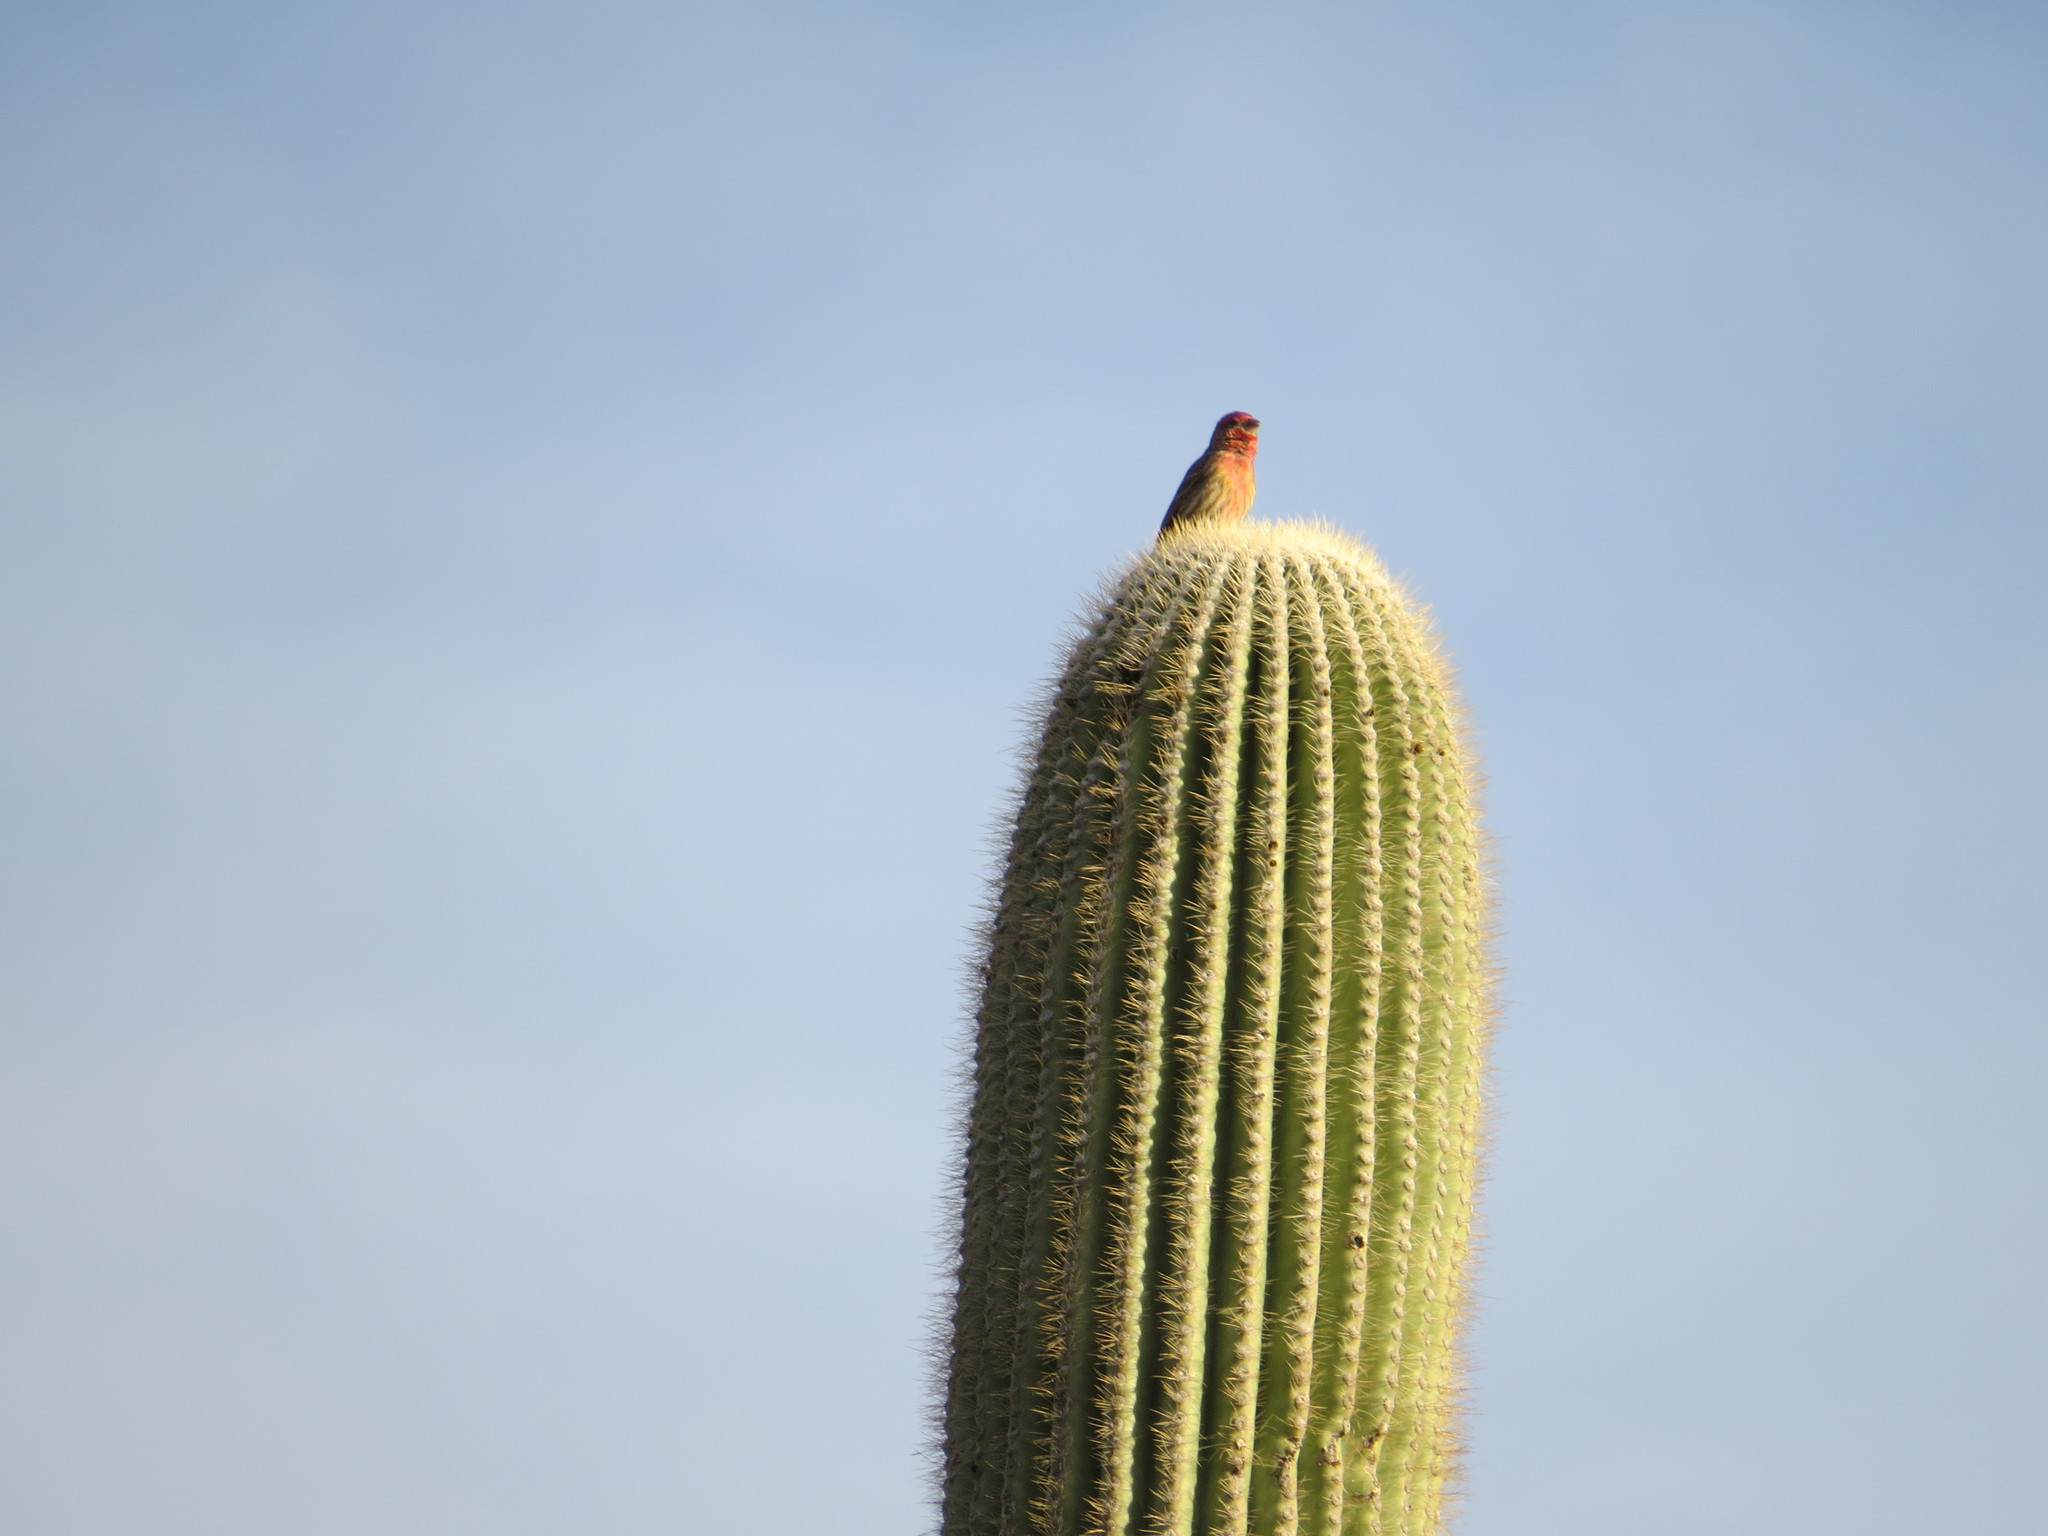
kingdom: Animalia
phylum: Chordata
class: Aves
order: Passeriformes
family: Fringillidae
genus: Haemorhous
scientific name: Haemorhous mexicanus
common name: House finch
